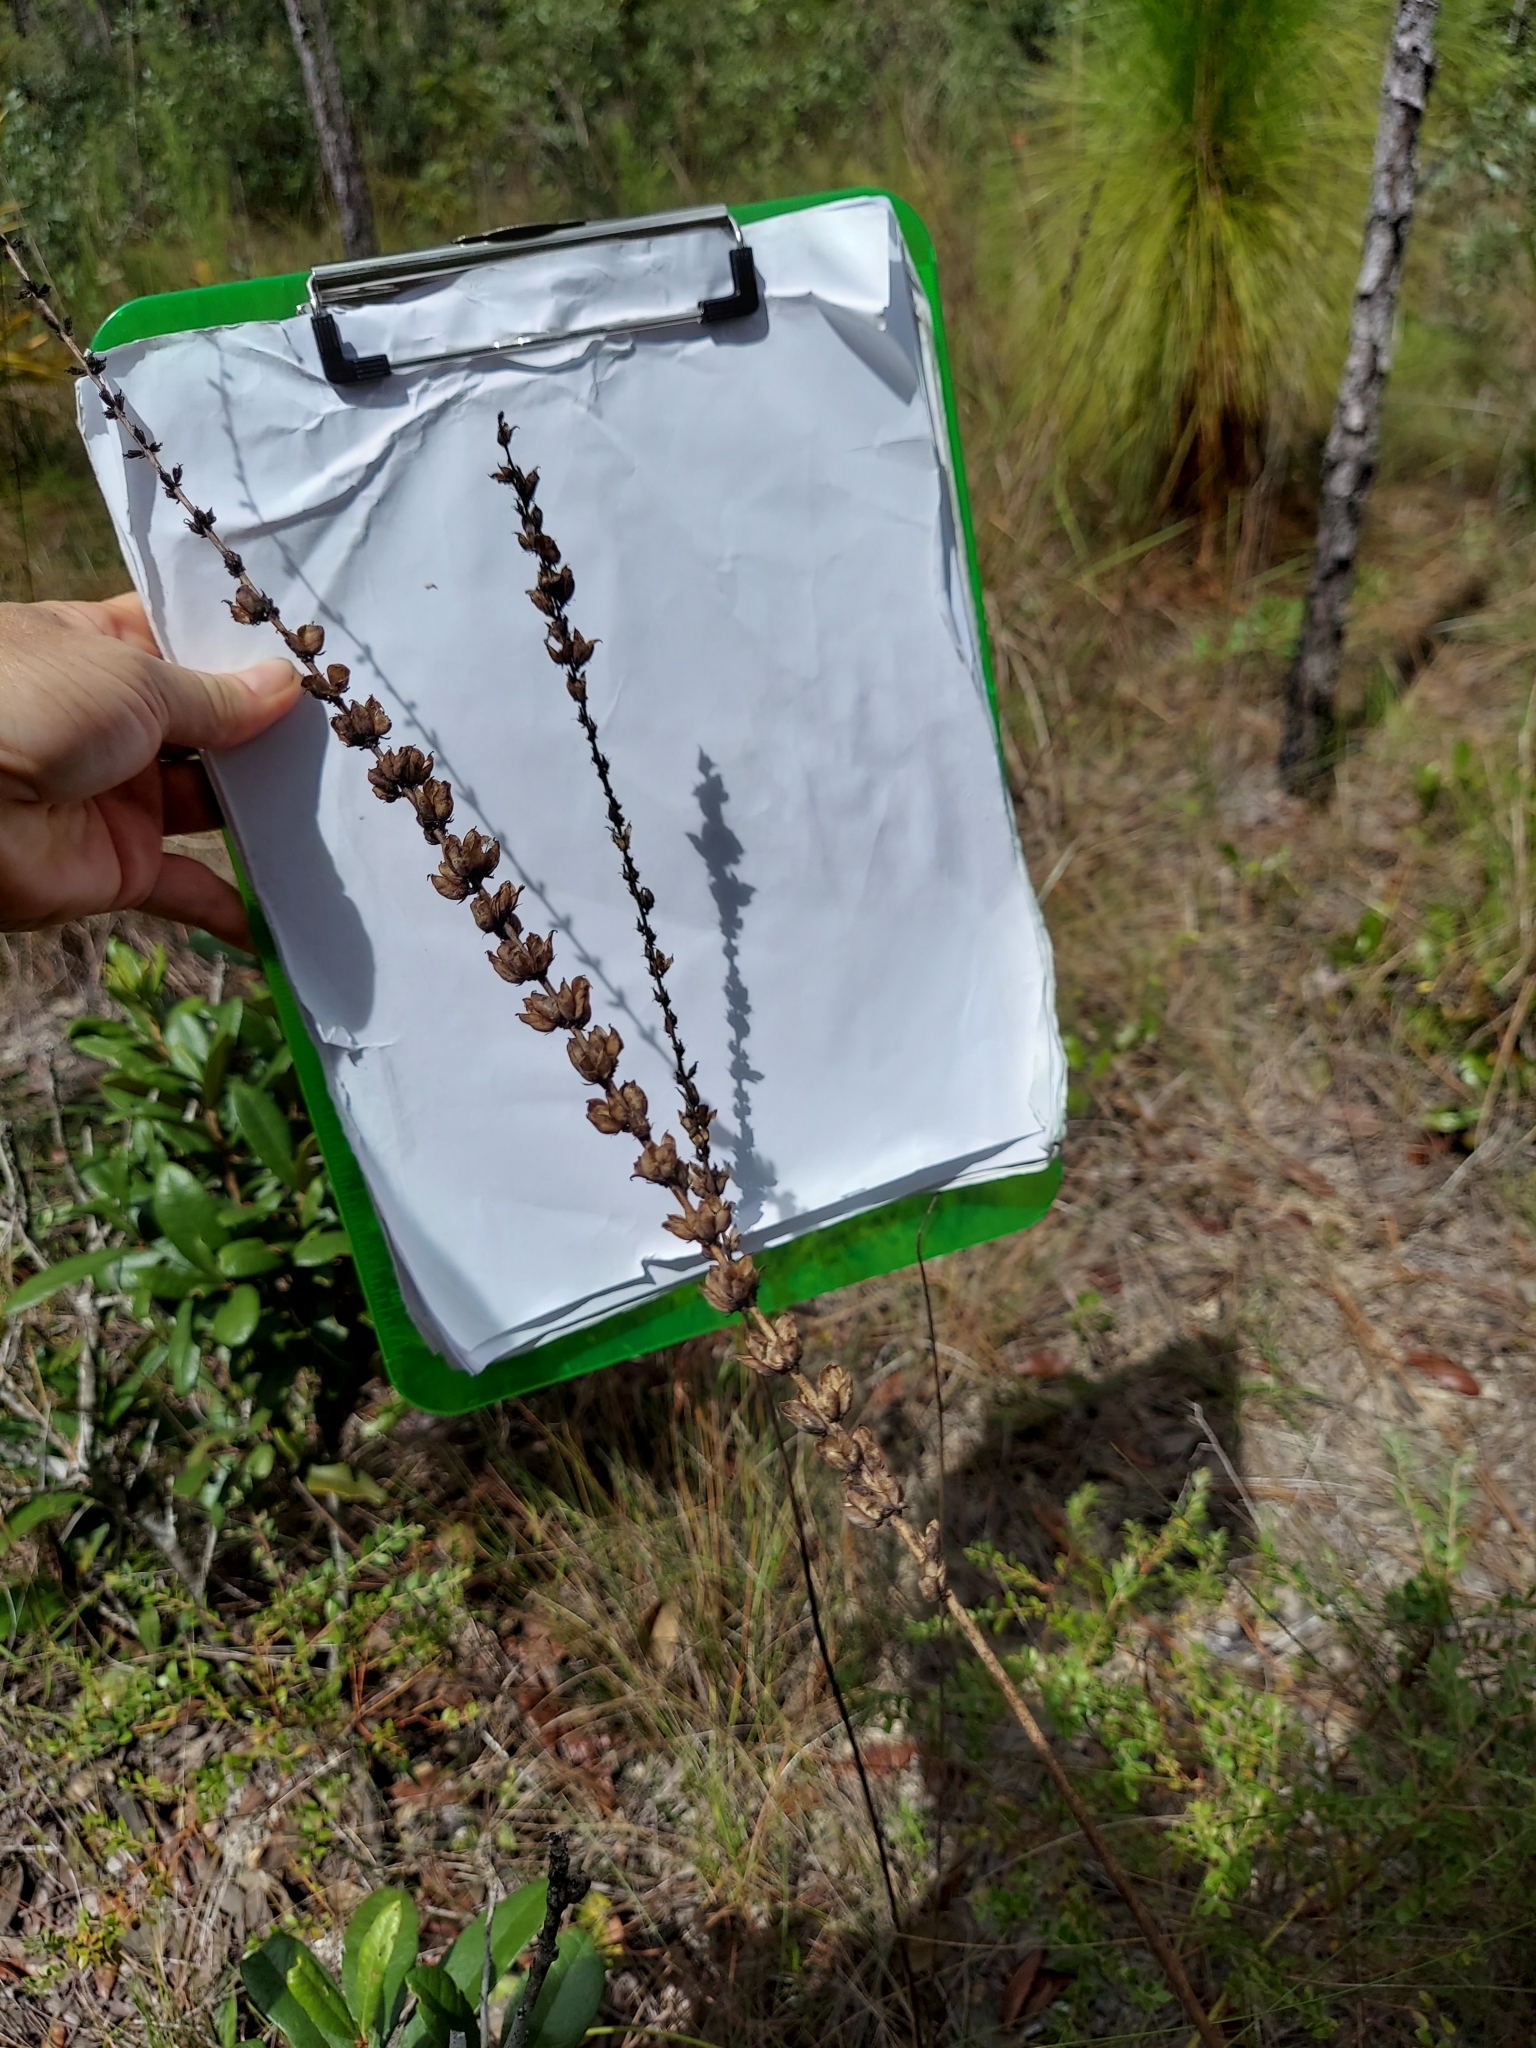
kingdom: Plantae
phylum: Tracheophyta
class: Liliopsida
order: Liliales
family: Melanthiaceae
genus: Schoenocaulon
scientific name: Schoenocaulon dubium
